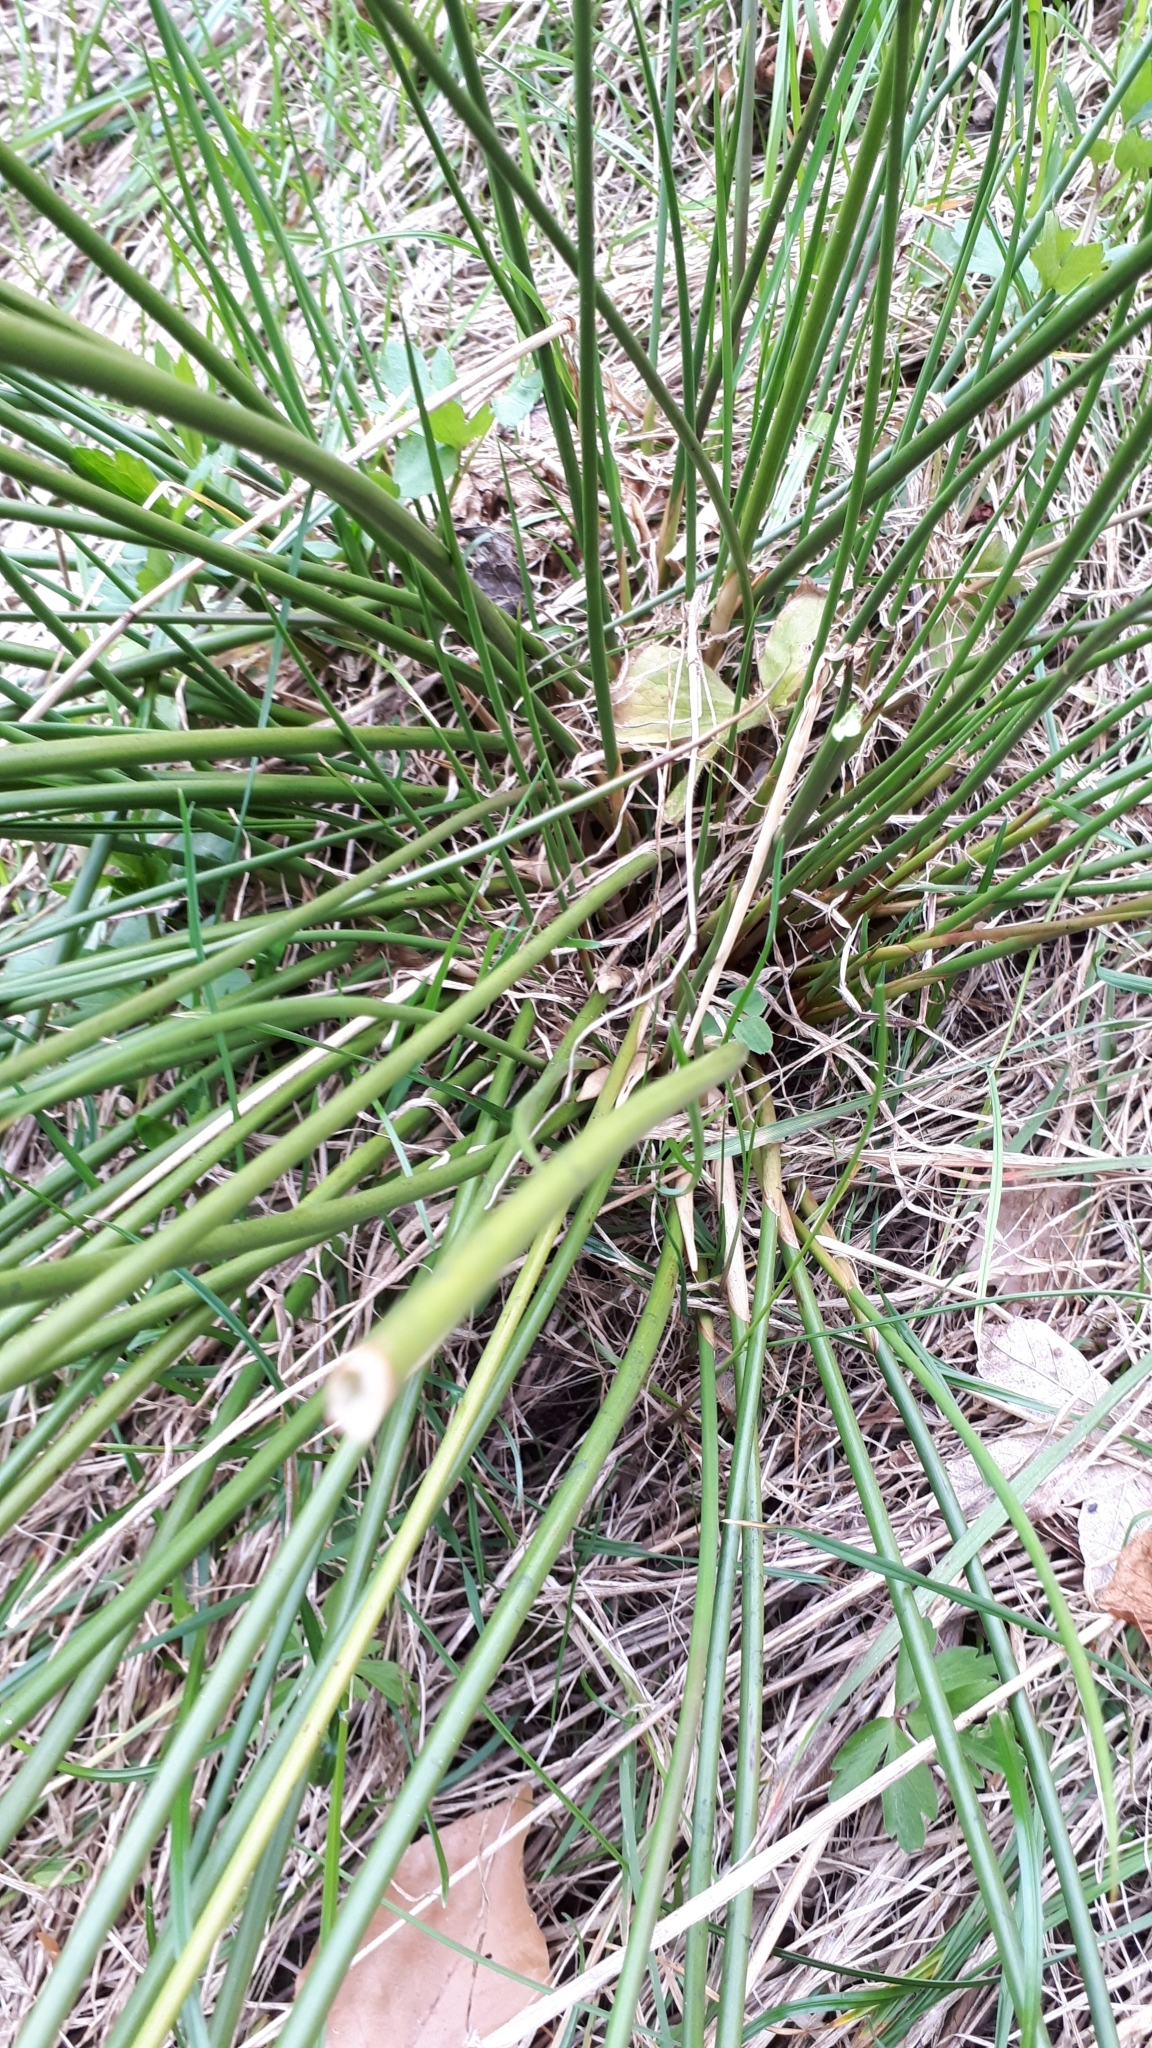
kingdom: Plantae
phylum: Tracheophyta
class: Liliopsida
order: Poales
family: Juncaceae
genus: Juncus
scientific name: Juncus effusus
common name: Soft rush
